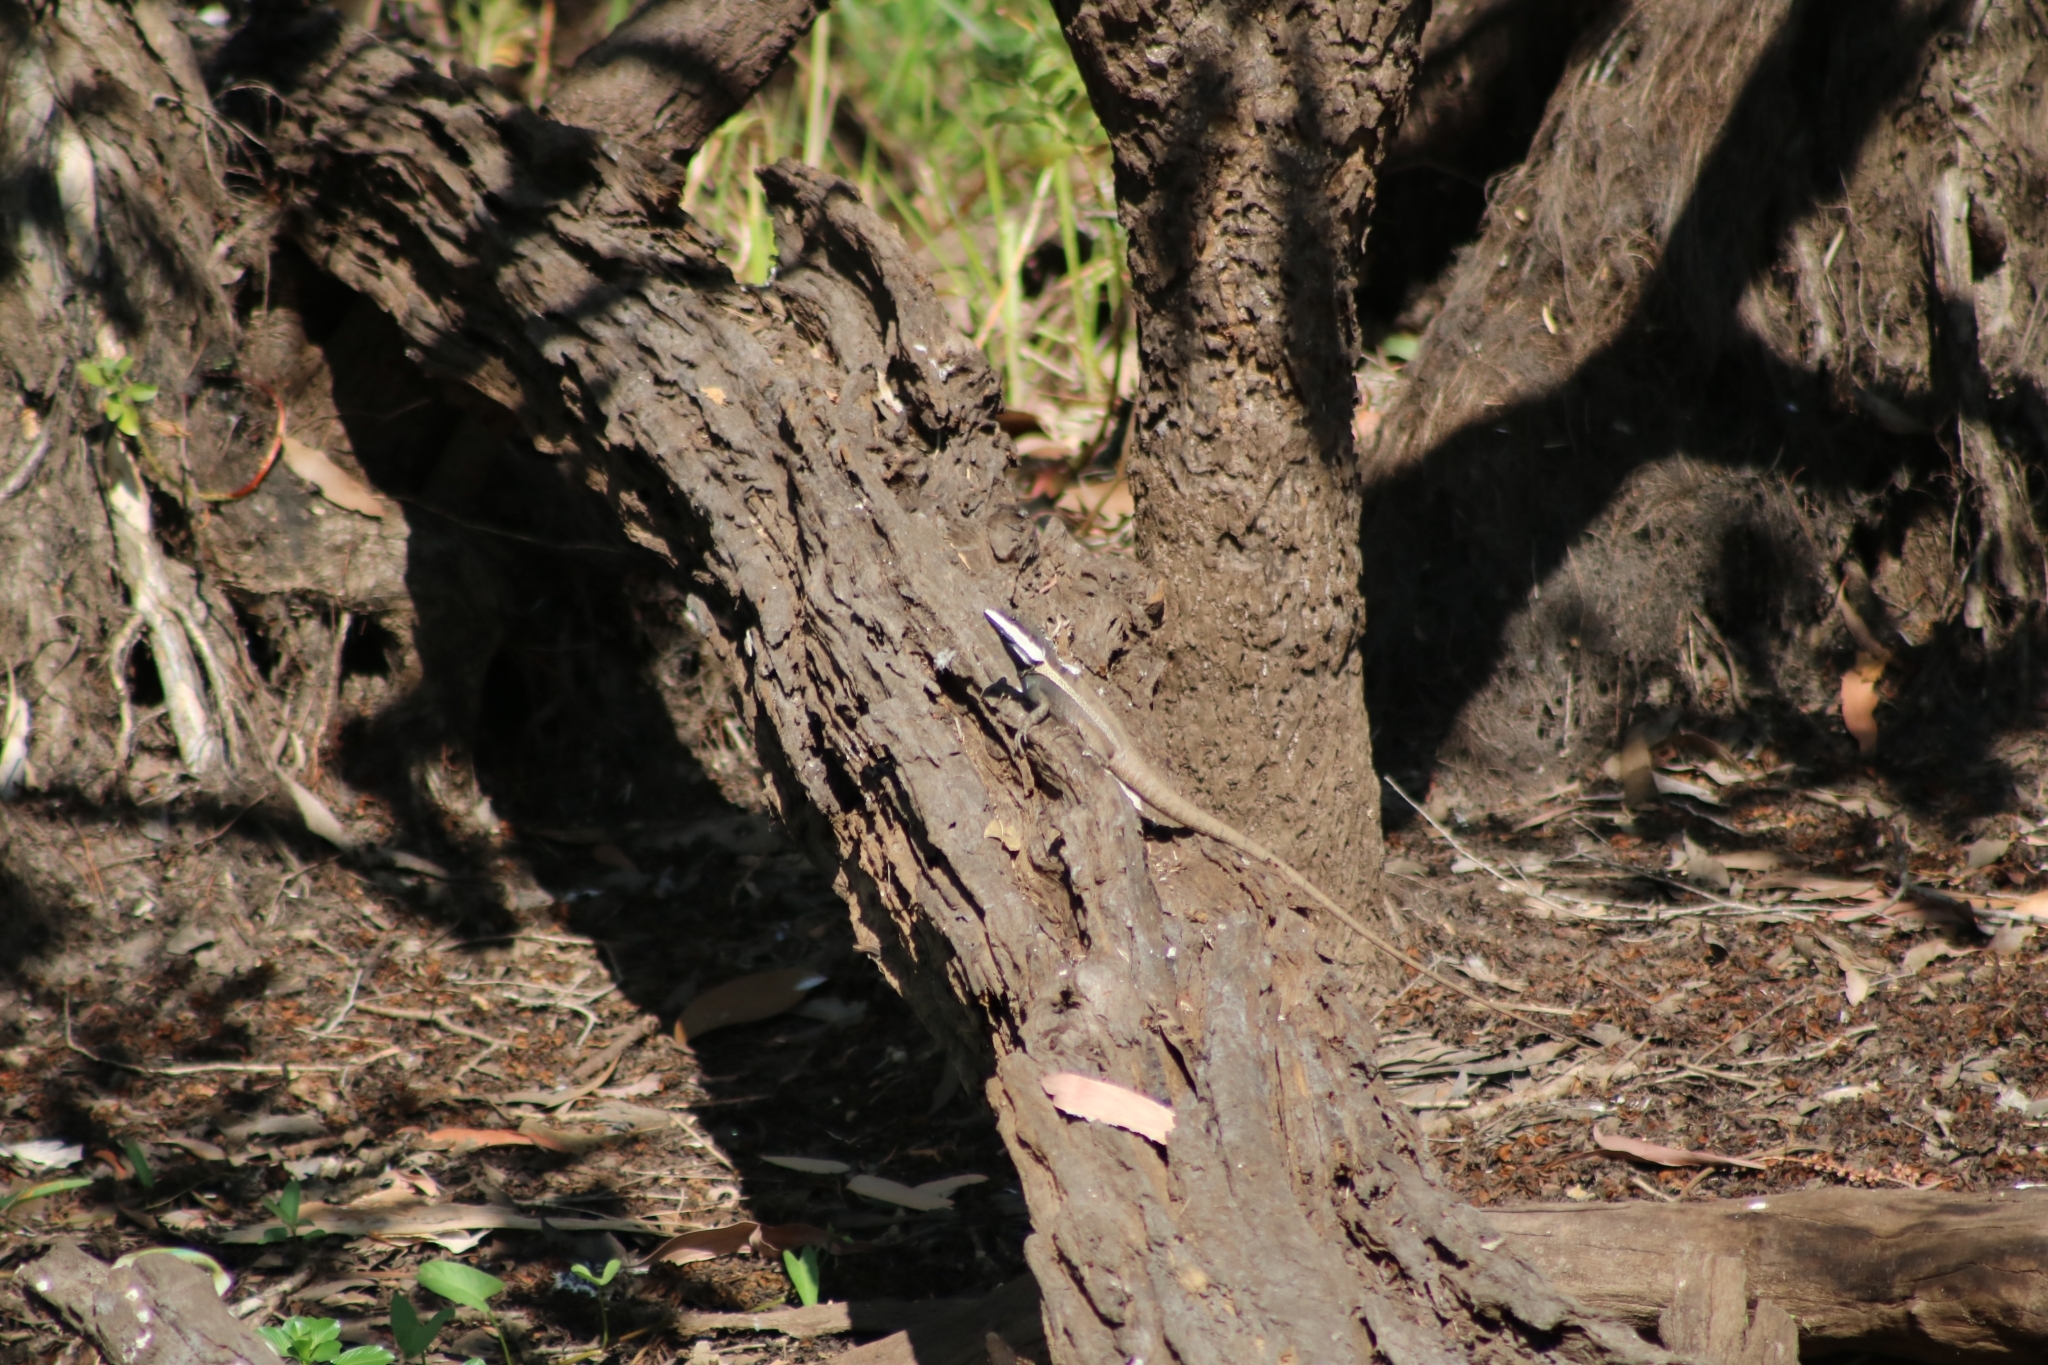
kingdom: Animalia
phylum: Chordata
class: Squamata
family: Agamidae
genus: Tropicagama
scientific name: Tropicagama temporalis
